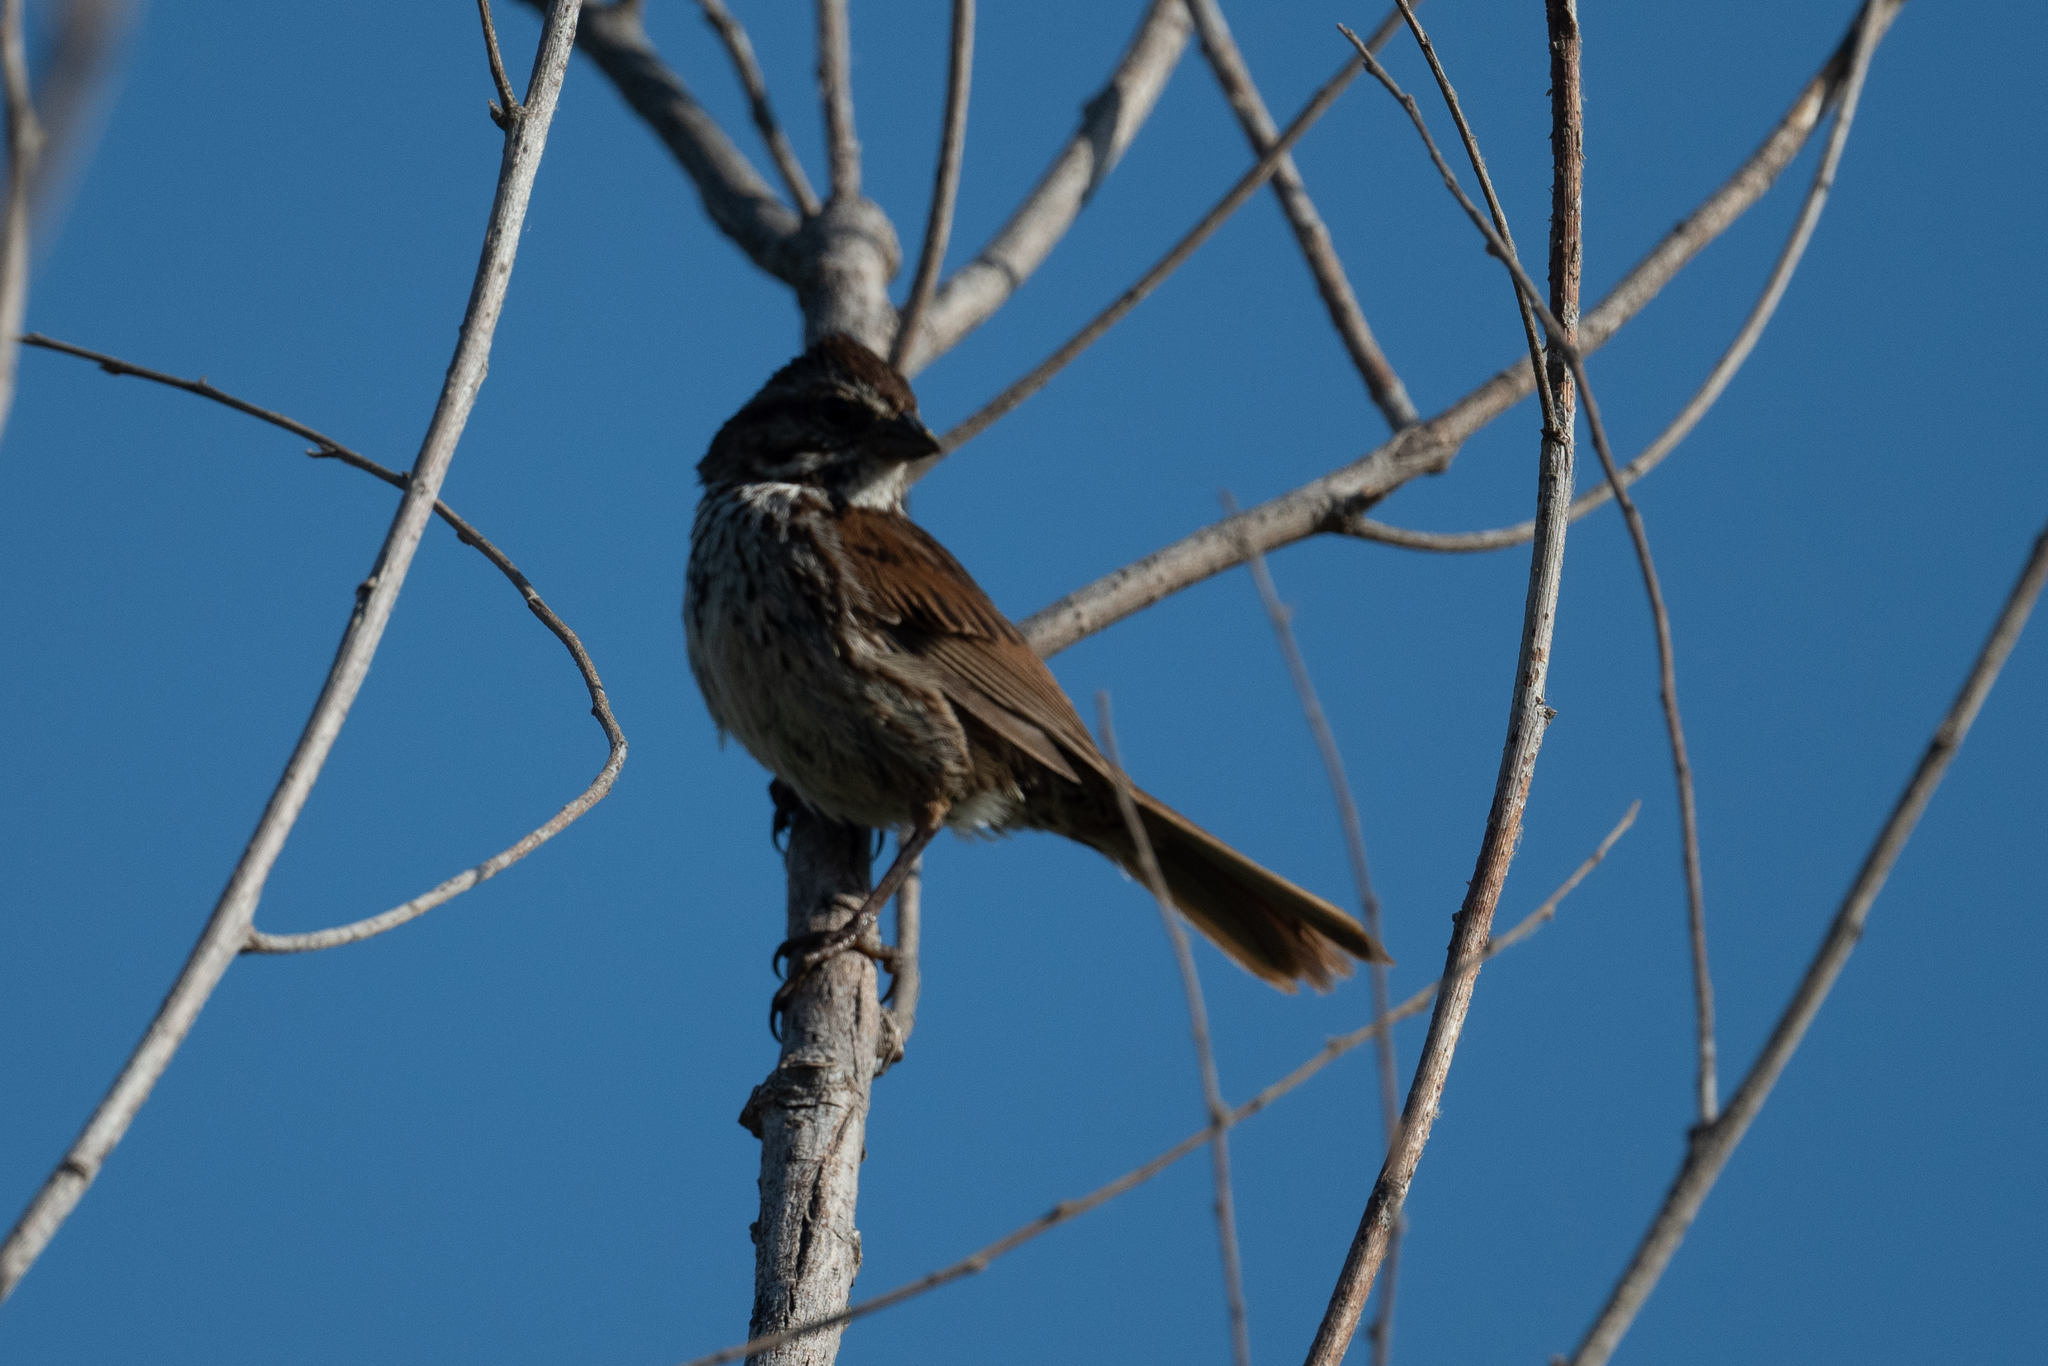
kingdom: Animalia
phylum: Chordata
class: Aves
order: Passeriformes
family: Passerellidae
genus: Melospiza
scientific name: Melospiza melodia
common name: Song sparrow
